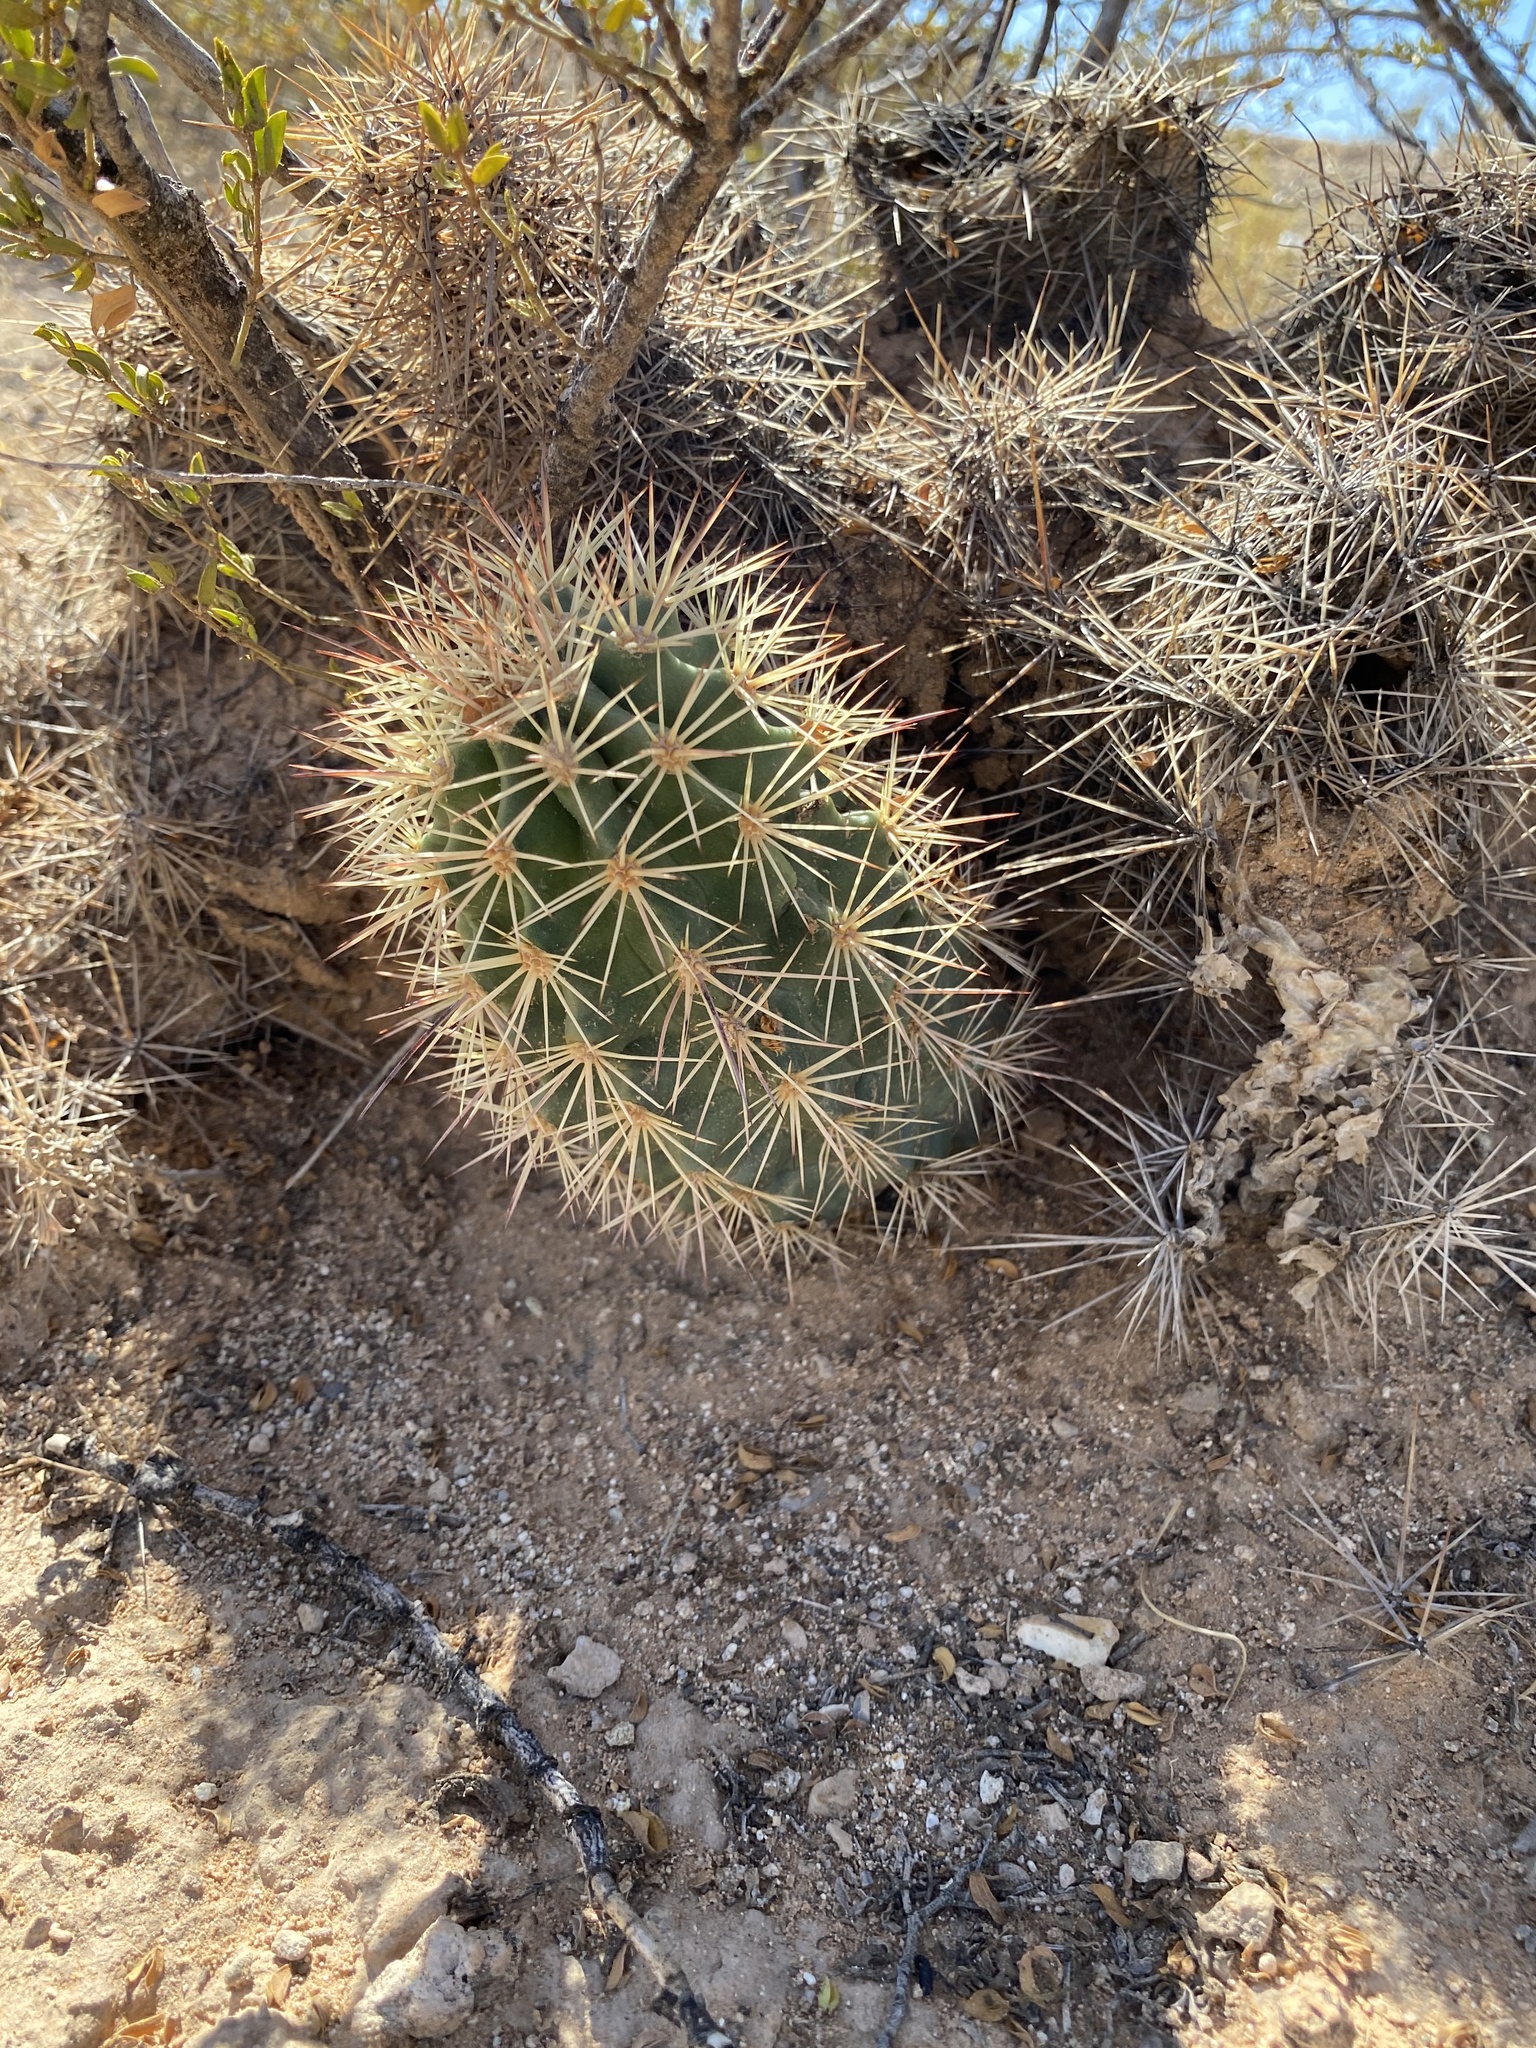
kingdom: Plantae
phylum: Tracheophyta
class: Magnoliopsida
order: Caryophyllales
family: Cactaceae
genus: Echinocereus
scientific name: Echinocereus coccineus
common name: Scarlet hedgehog cactus
